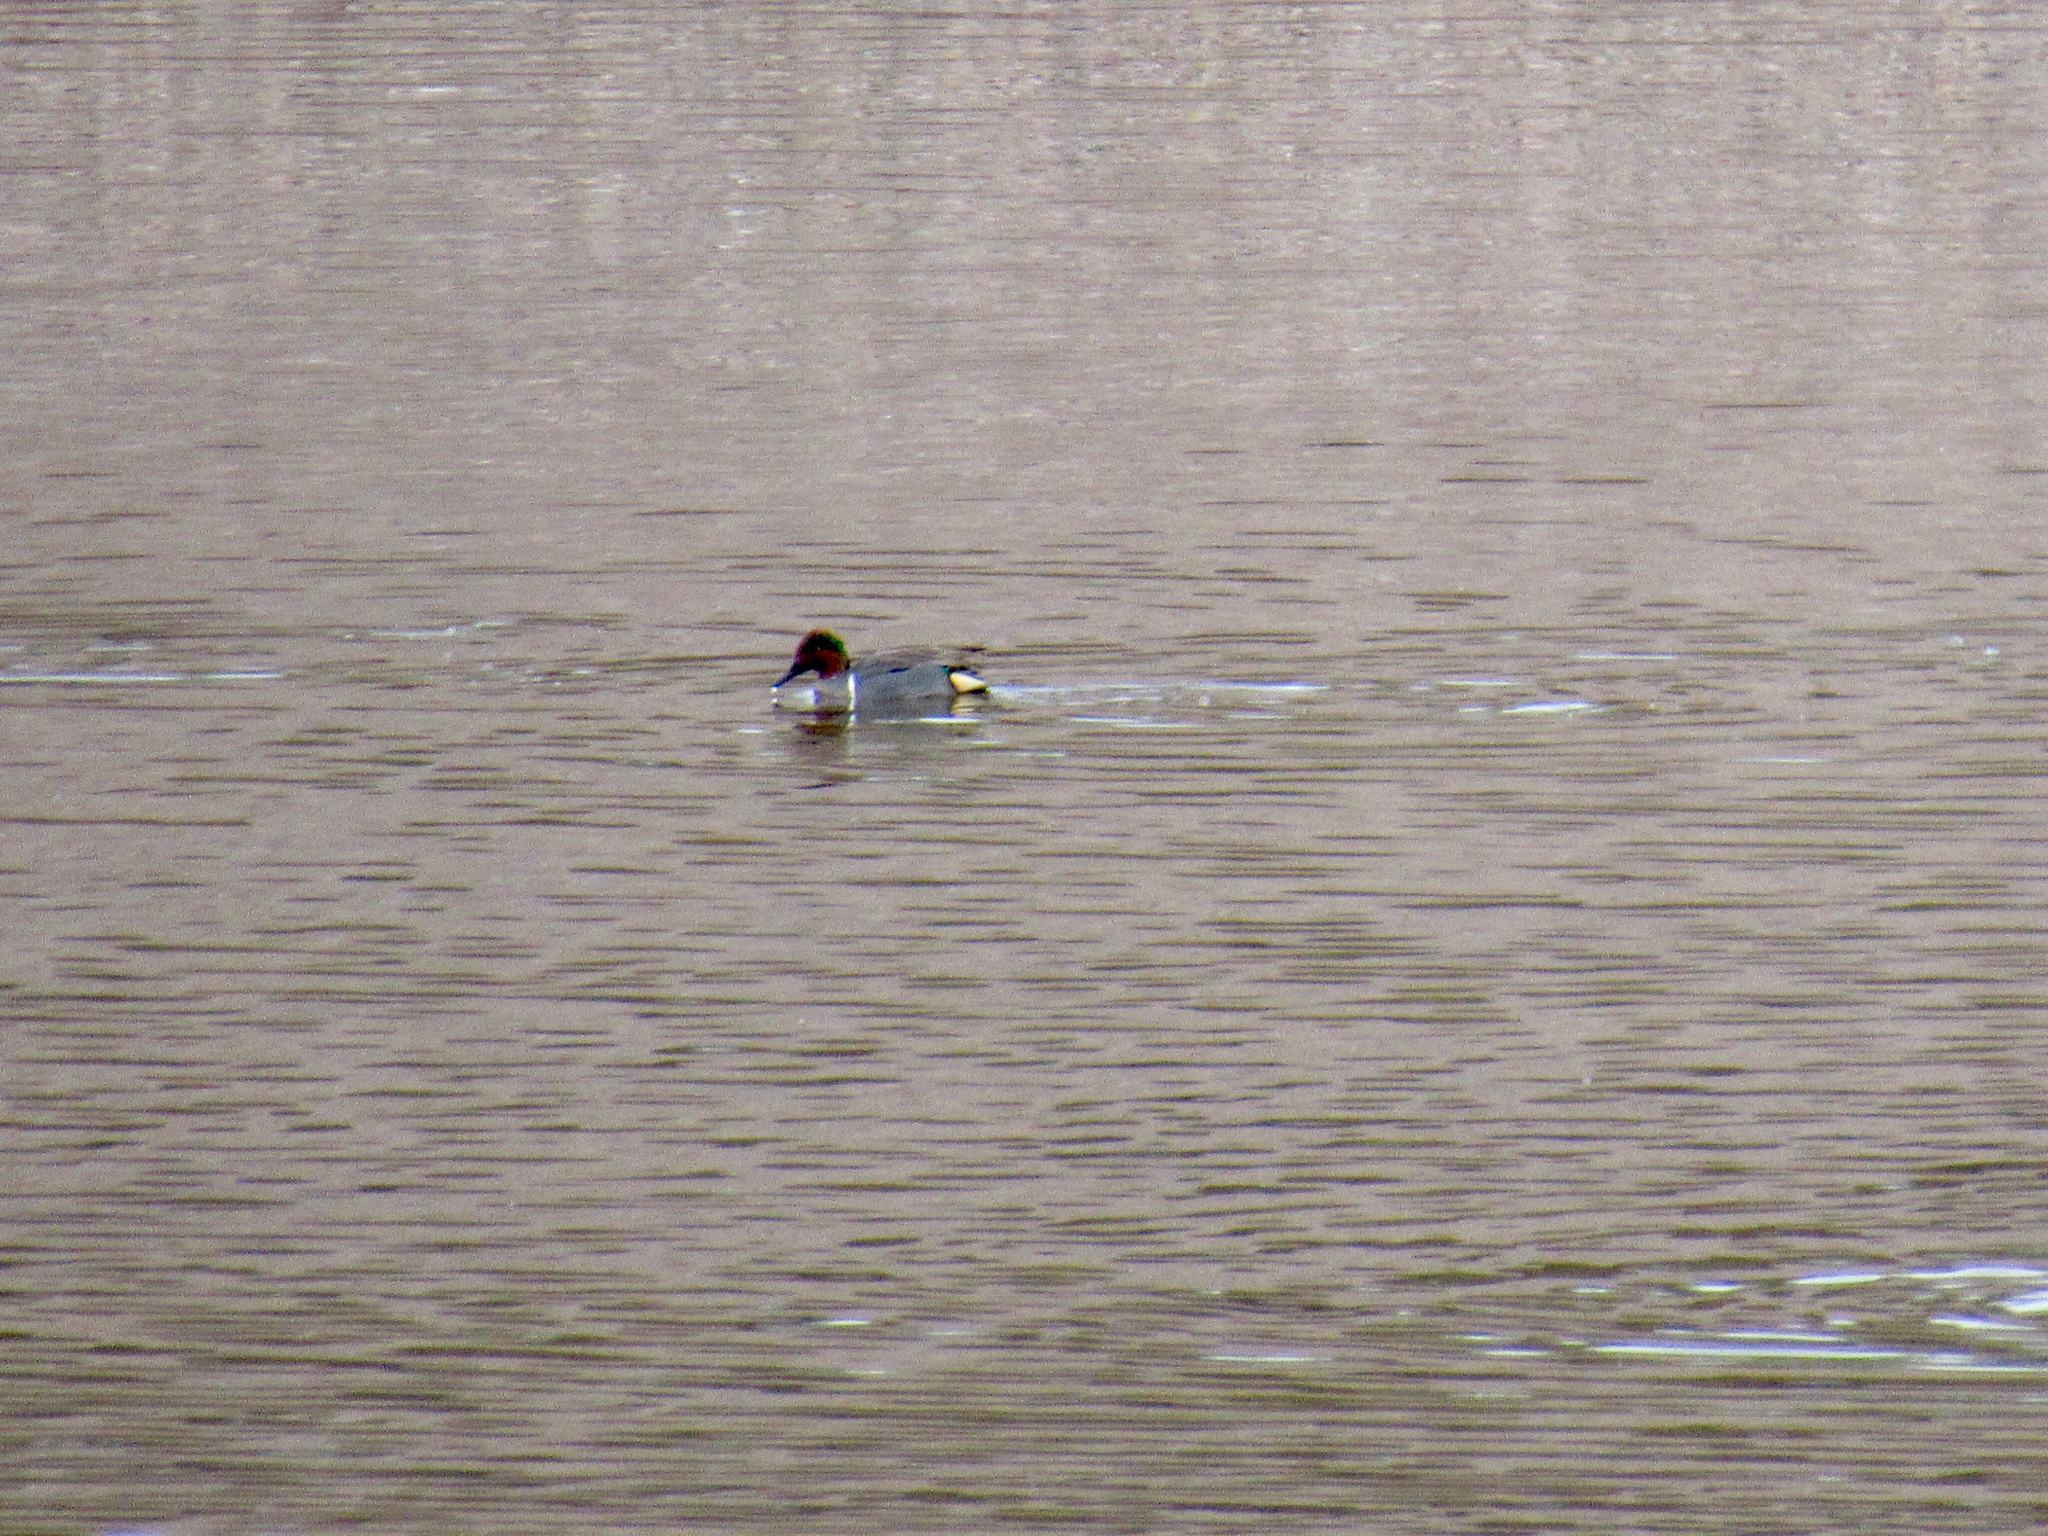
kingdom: Animalia
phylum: Chordata
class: Aves
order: Anseriformes
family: Anatidae
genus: Anas
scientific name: Anas crecca
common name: Eurasian teal
